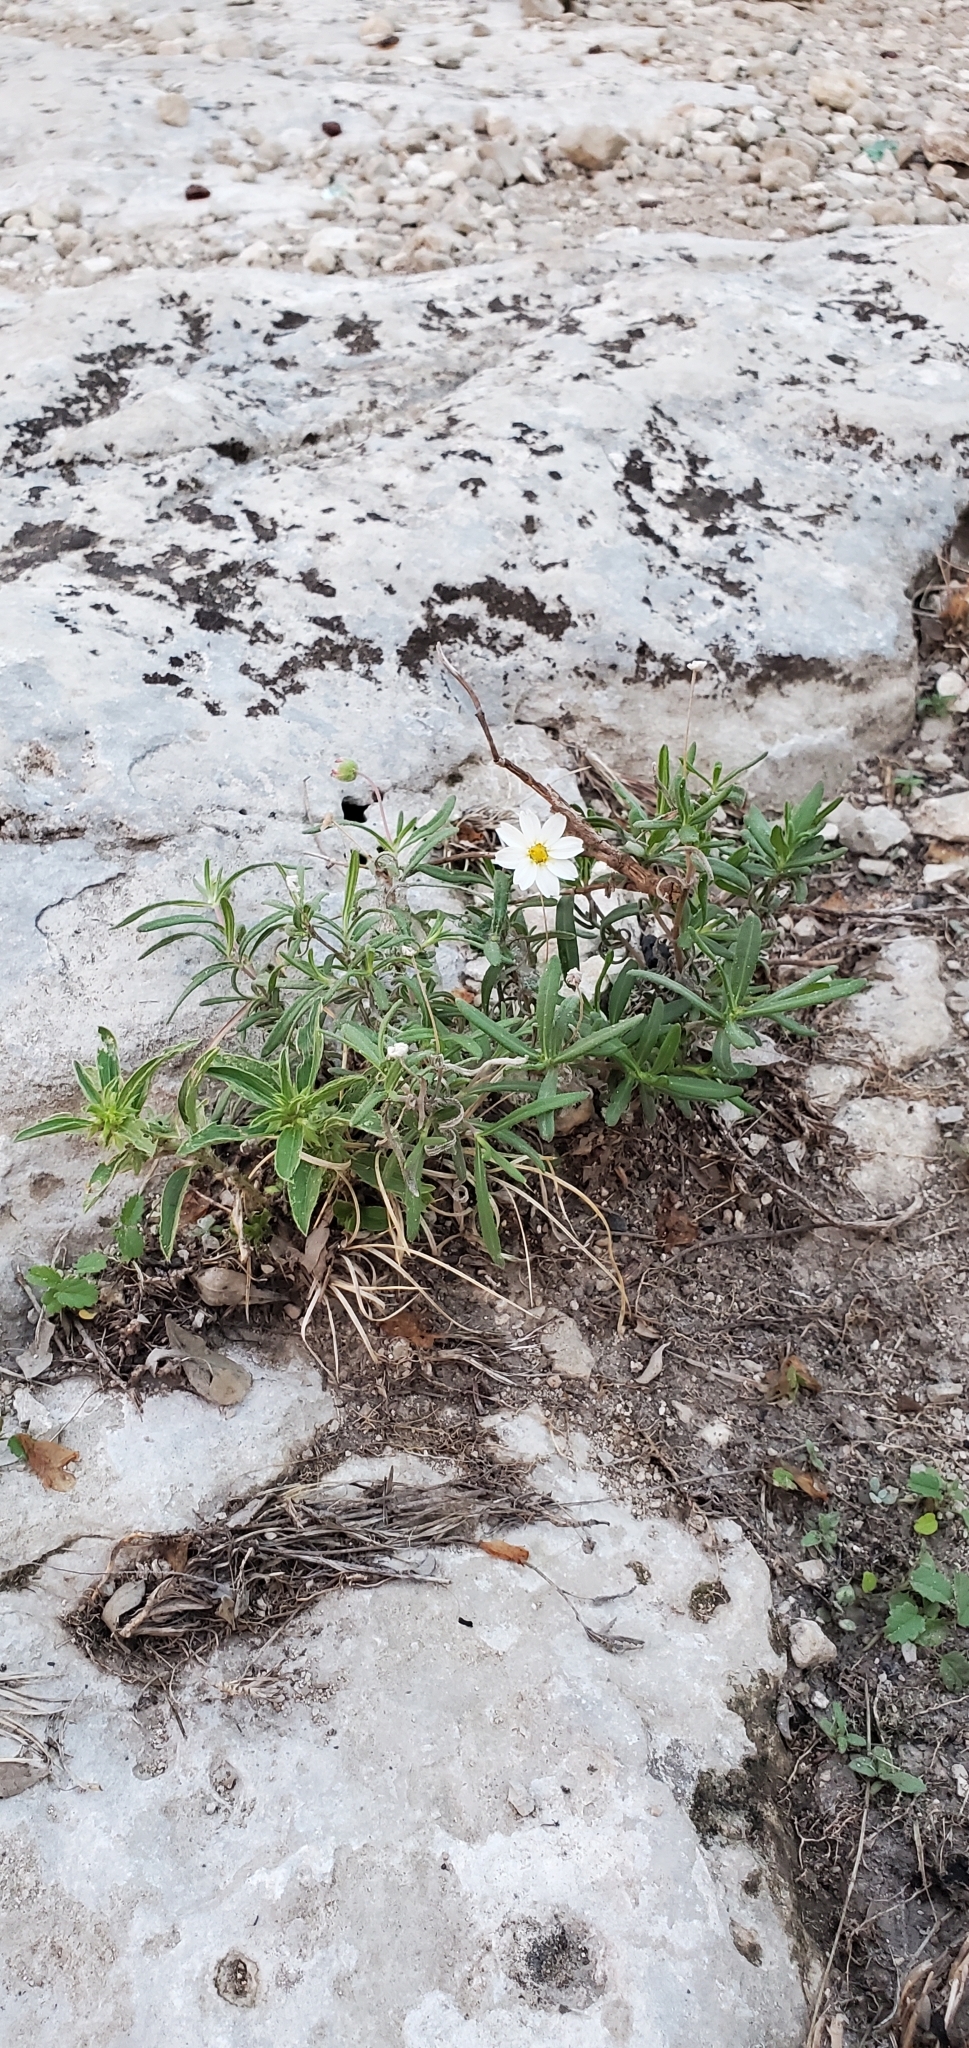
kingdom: Plantae
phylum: Tracheophyta
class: Magnoliopsida
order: Asterales
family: Asteraceae
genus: Melampodium
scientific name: Melampodium leucanthum
